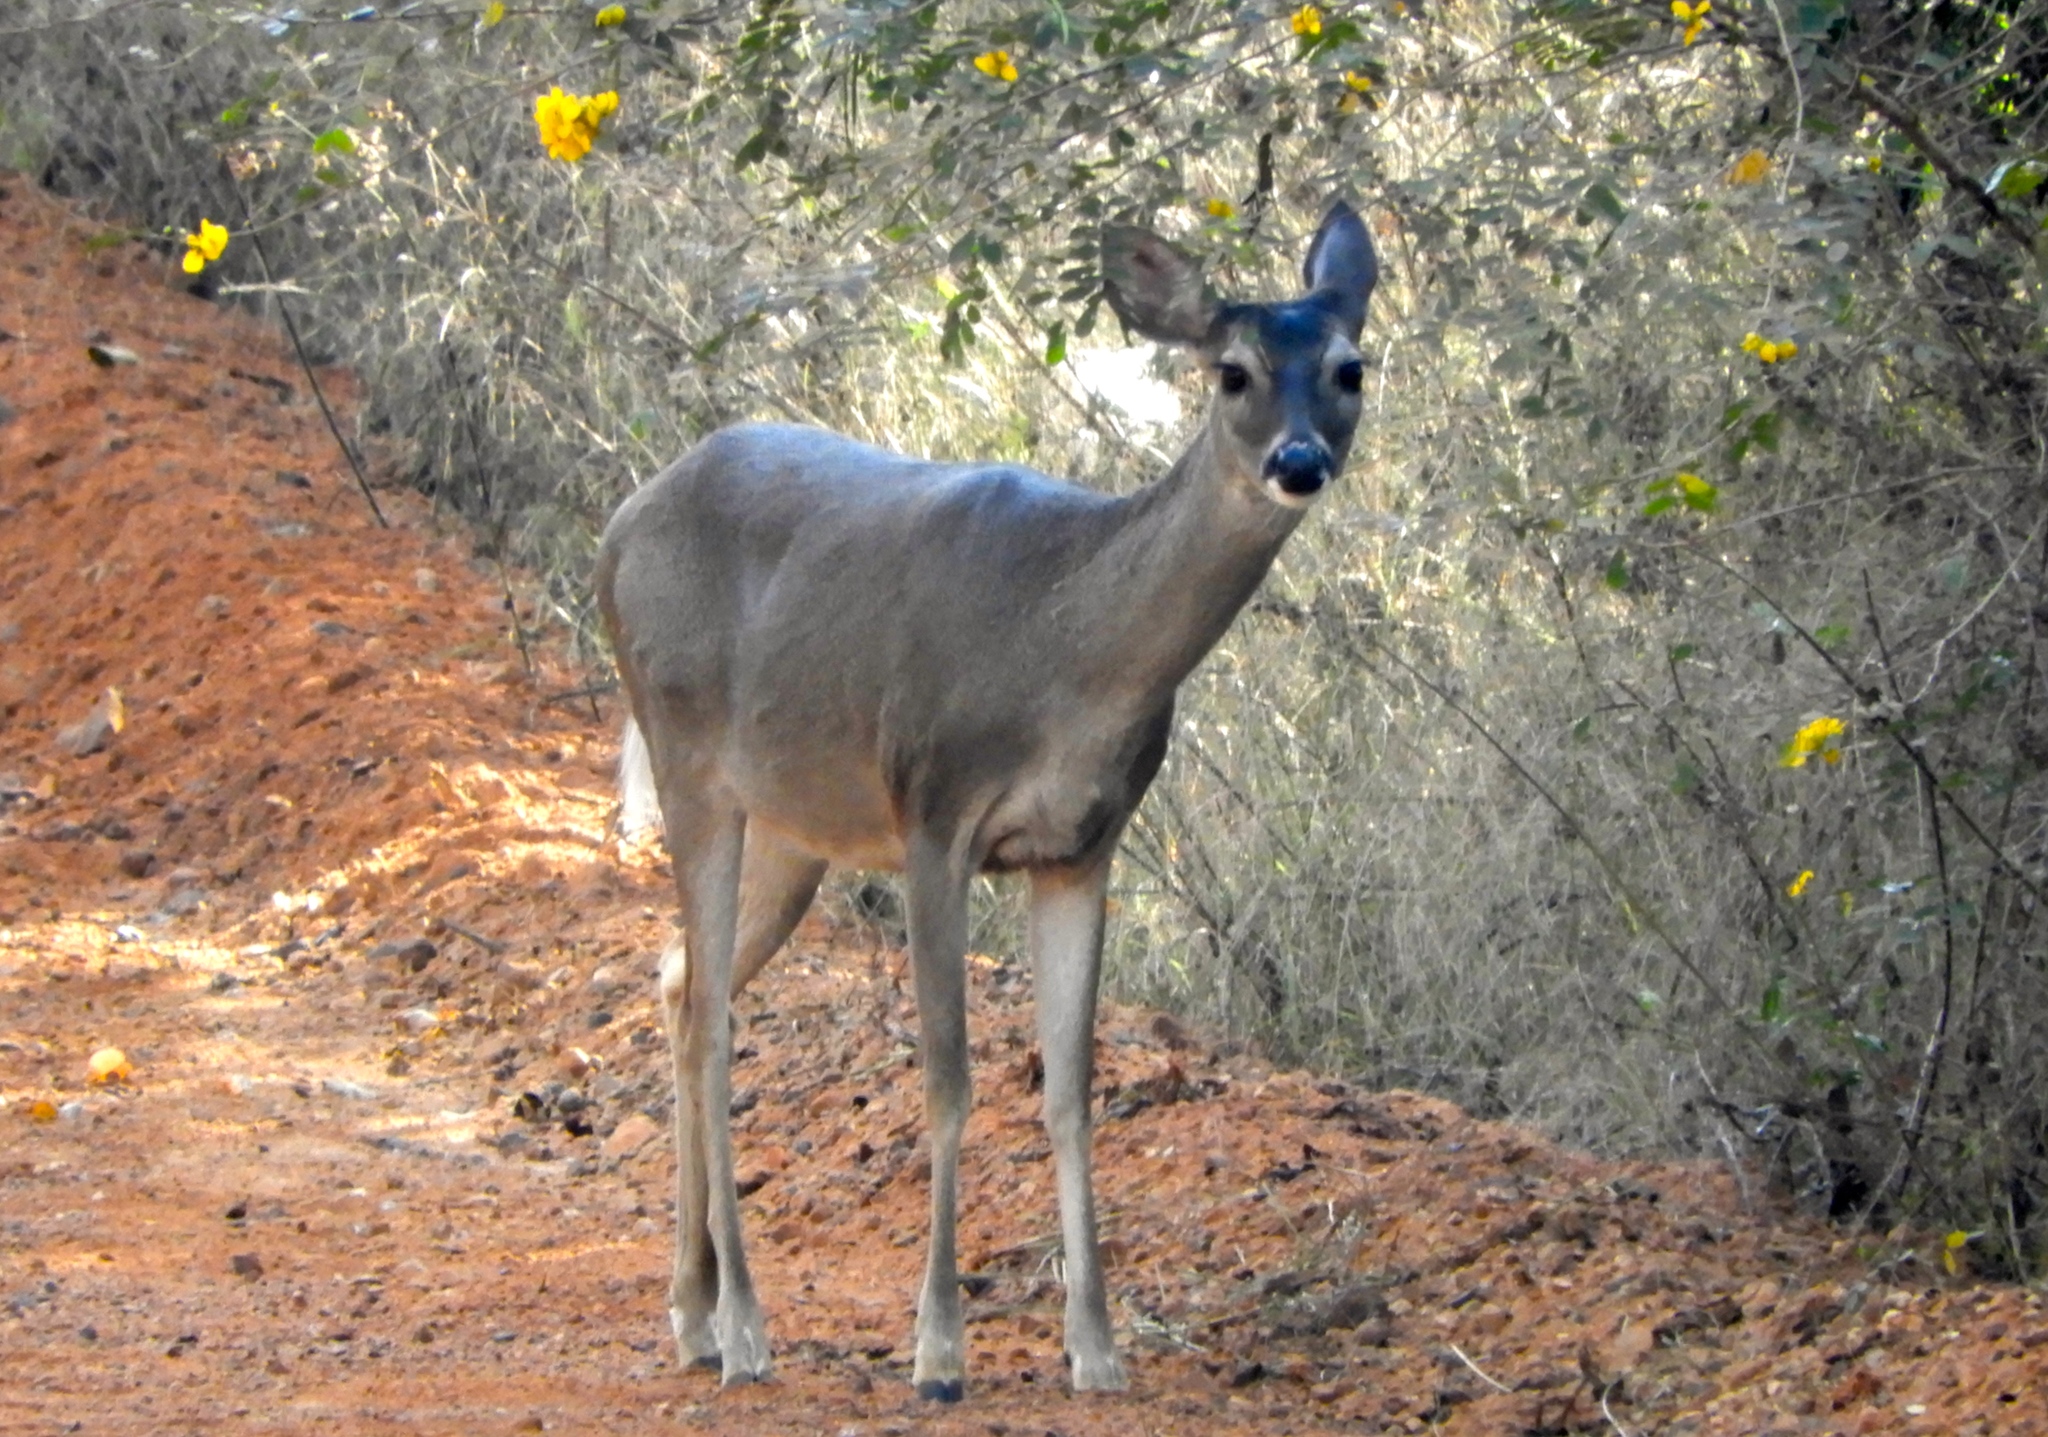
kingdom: Animalia
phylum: Chordata
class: Mammalia
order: Artiodactyla
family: Cervidae
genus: Odocoileus
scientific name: Odocoileus virginianus
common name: White-tailed deer
